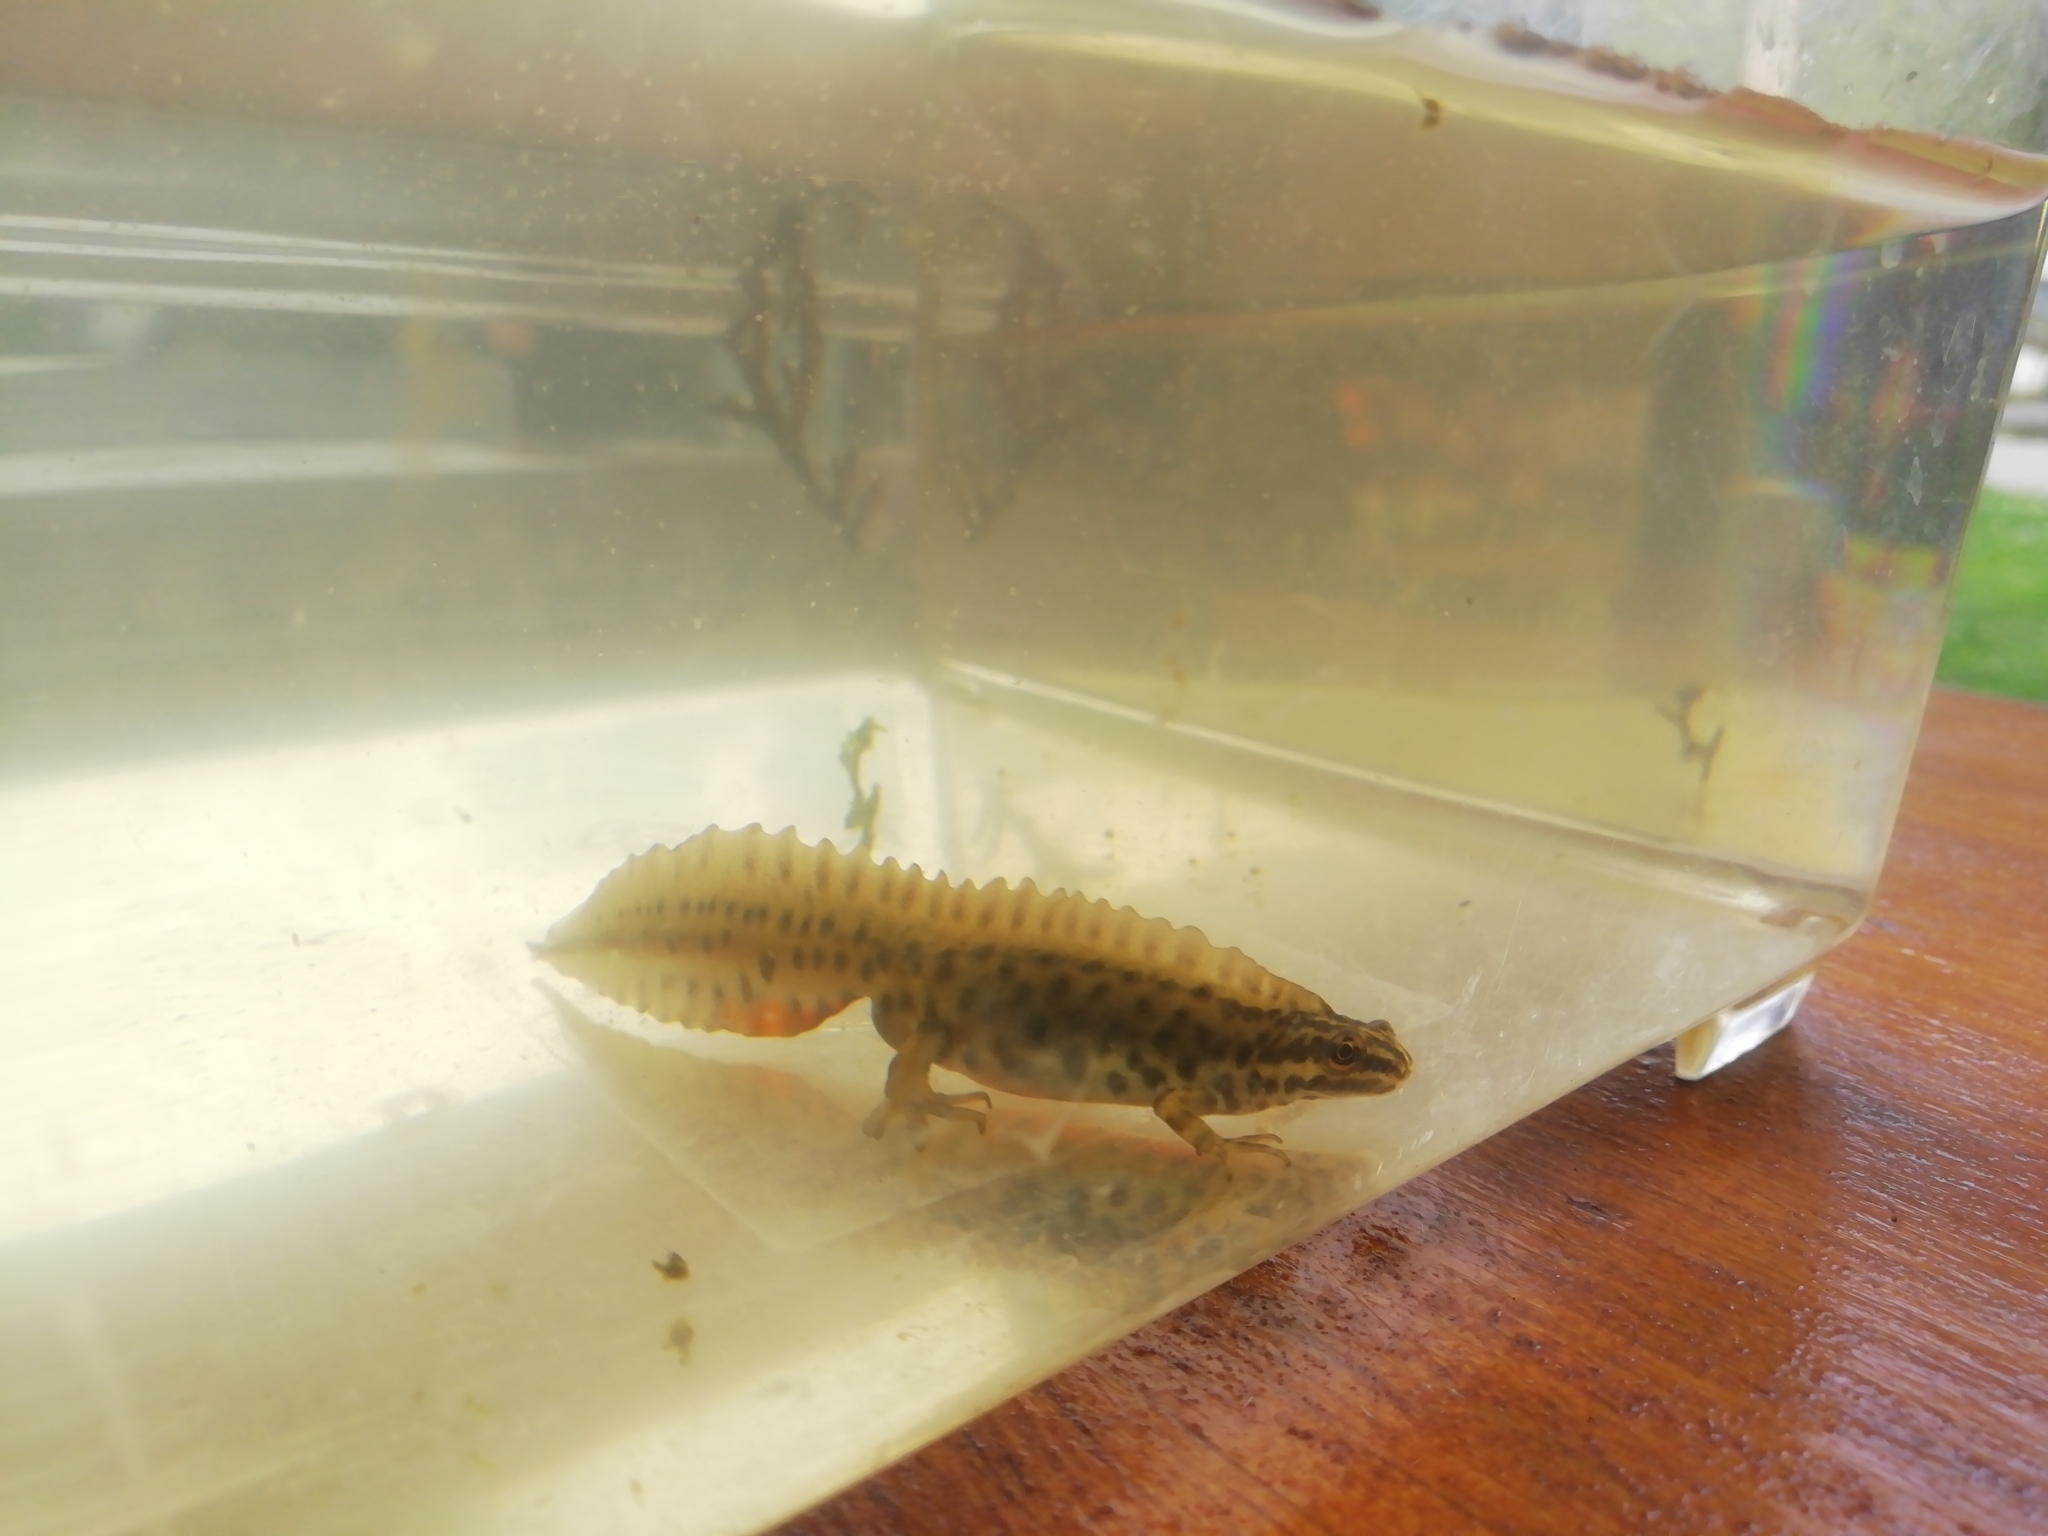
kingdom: Animalia
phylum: Chordata
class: Amphibia
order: Caudata
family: Salamandridae
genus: Lissotriton
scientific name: Lissotriton vulgaris
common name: Smooth newt
